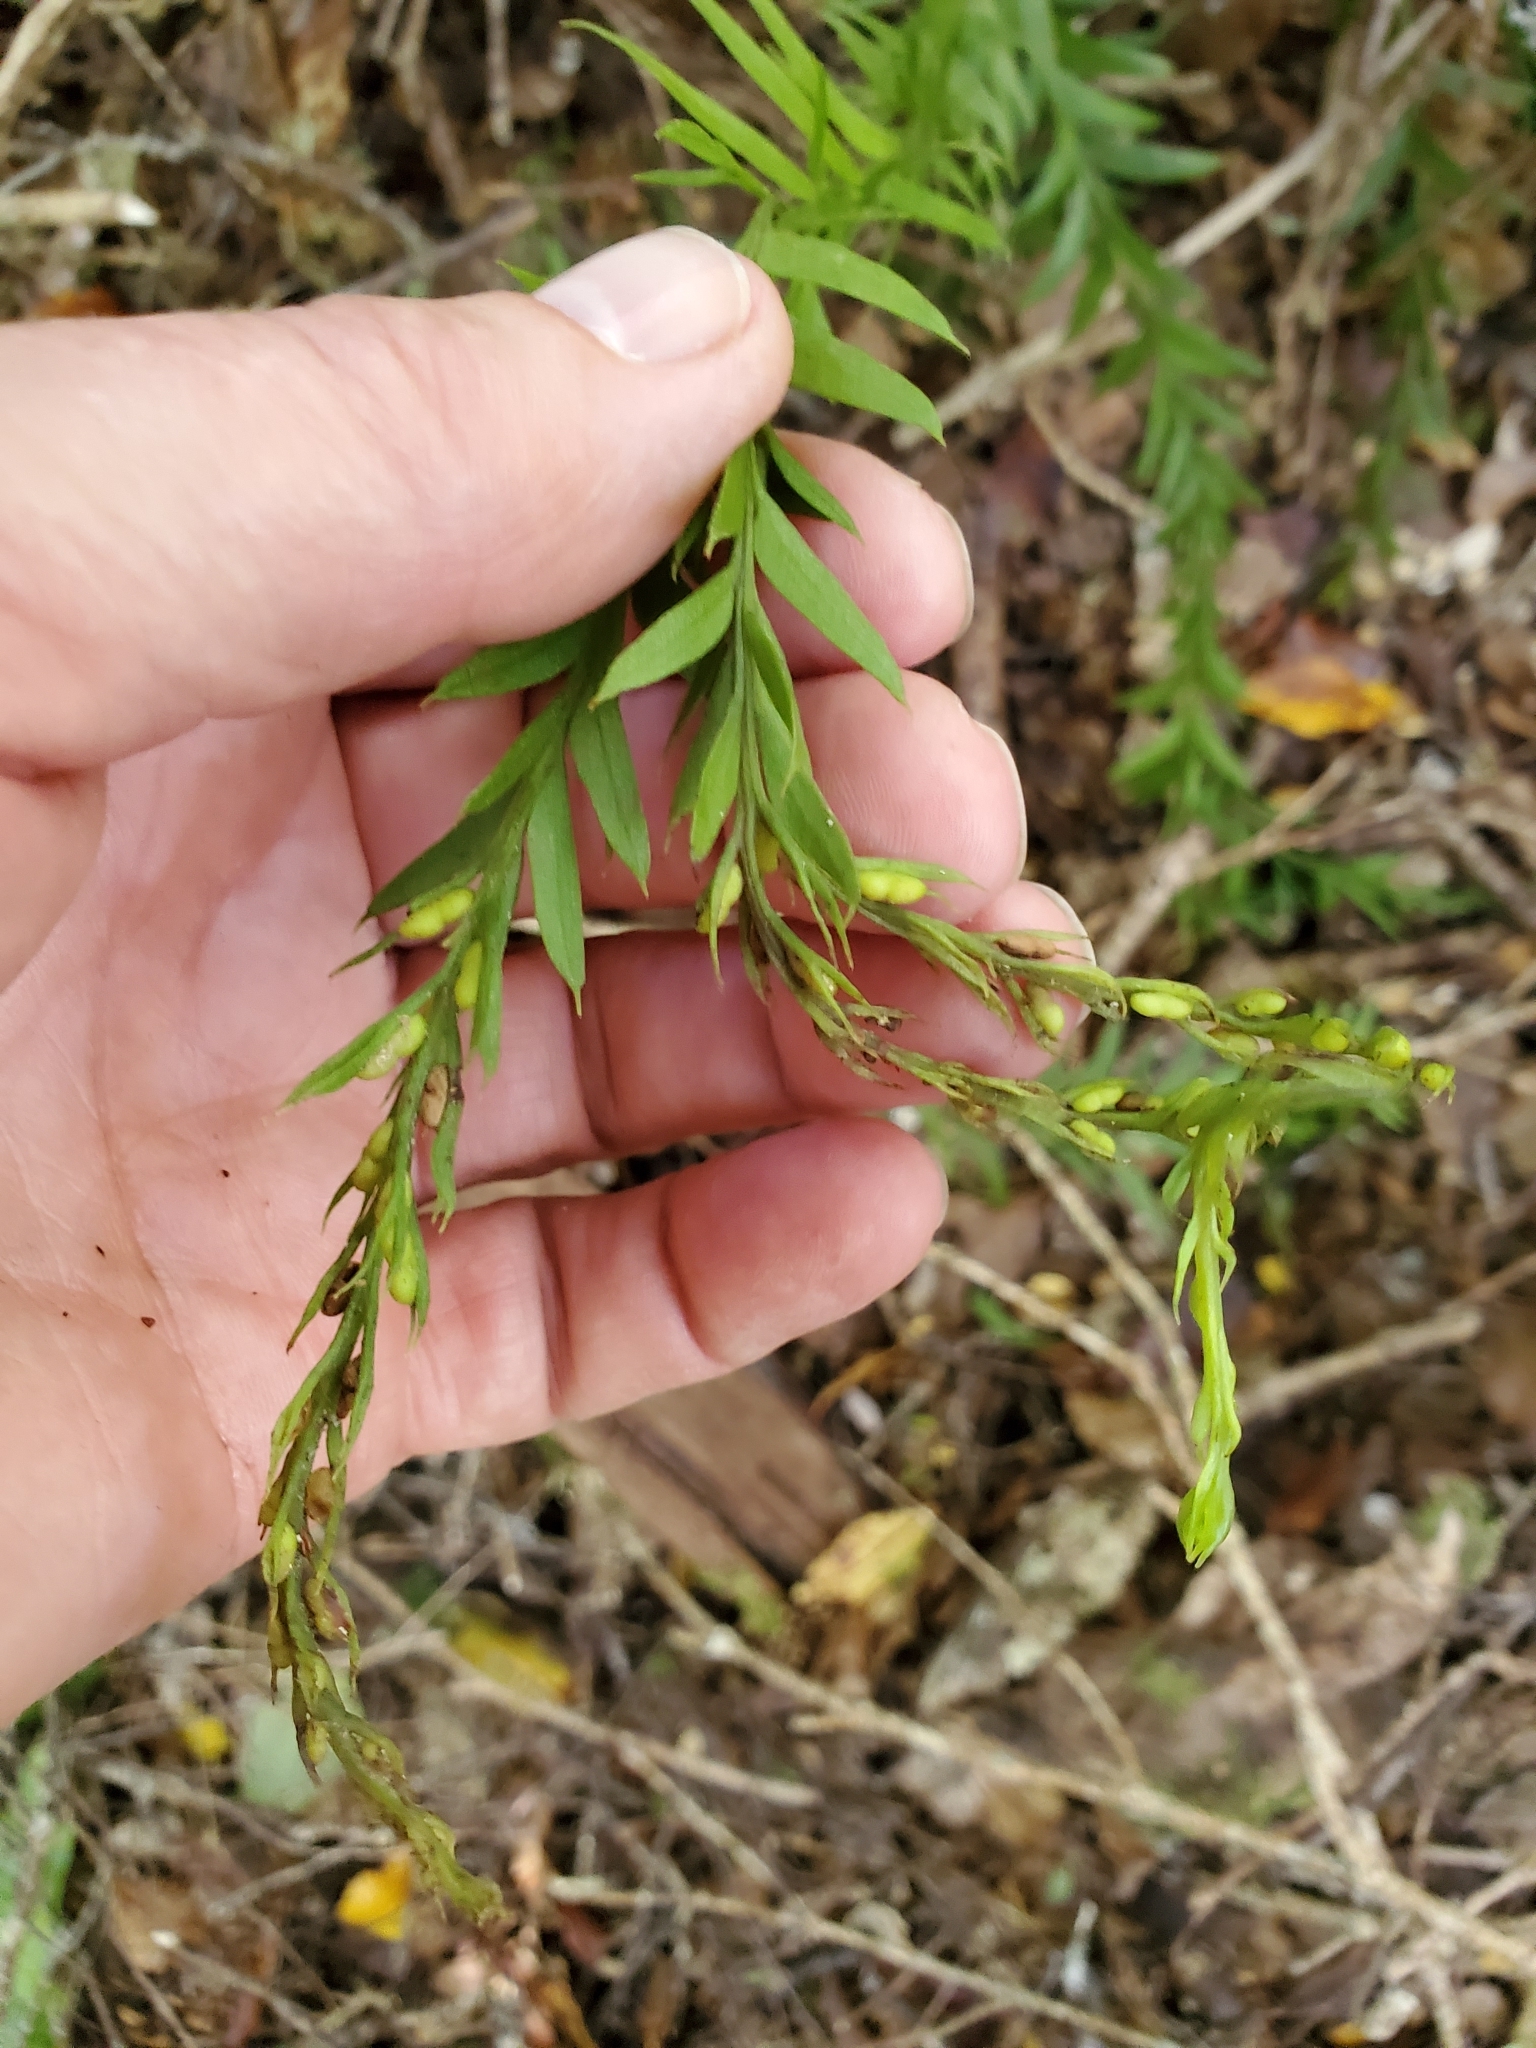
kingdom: Plantae
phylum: Tracheophyta
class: Polypodiopsida
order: Psilotales
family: Psilotaceae
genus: Tmesipteris
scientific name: Tmesipteris elongata
